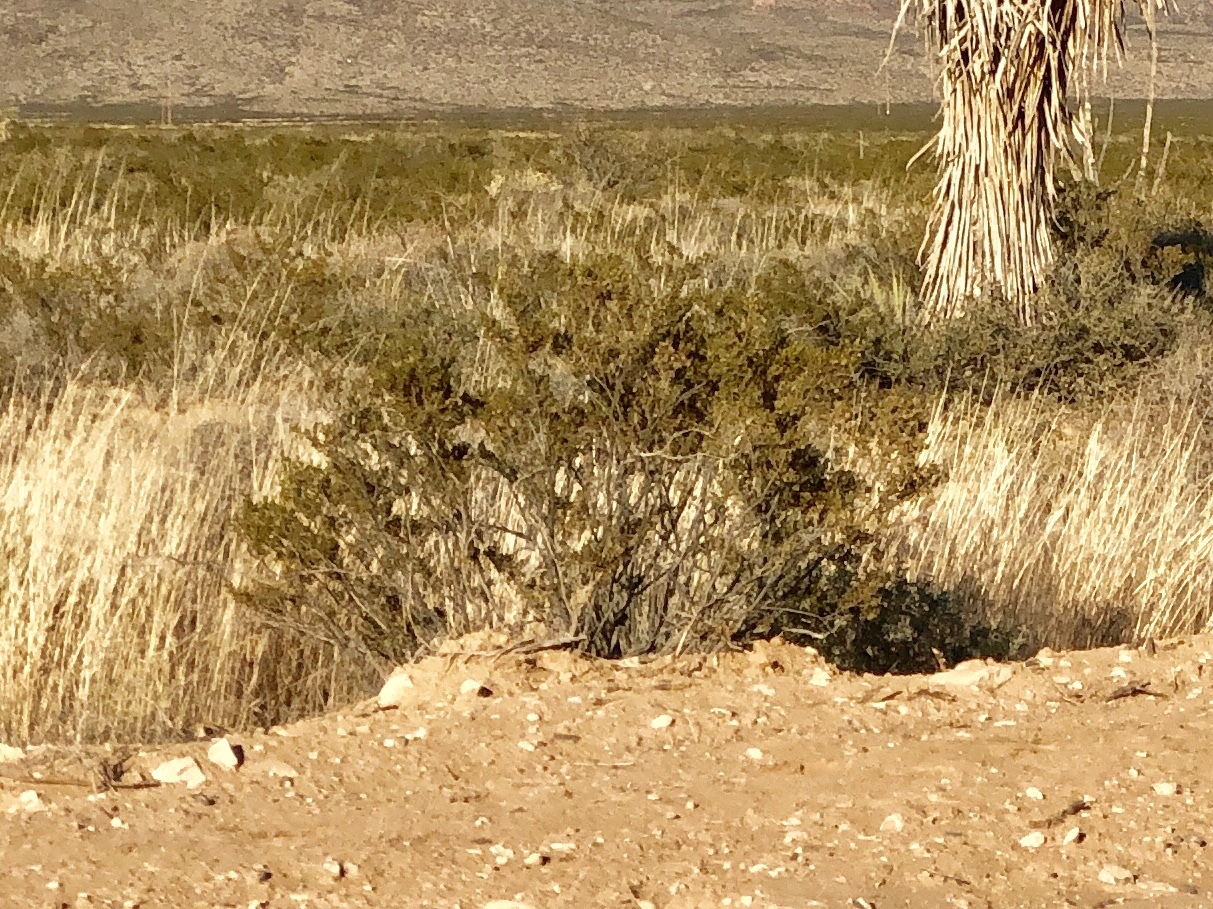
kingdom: Plantae
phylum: Tracheophyta
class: Magnoliopsida
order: Zygophyllales
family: Zygophyllaceae
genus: Larrea
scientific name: Larrea tridentata
